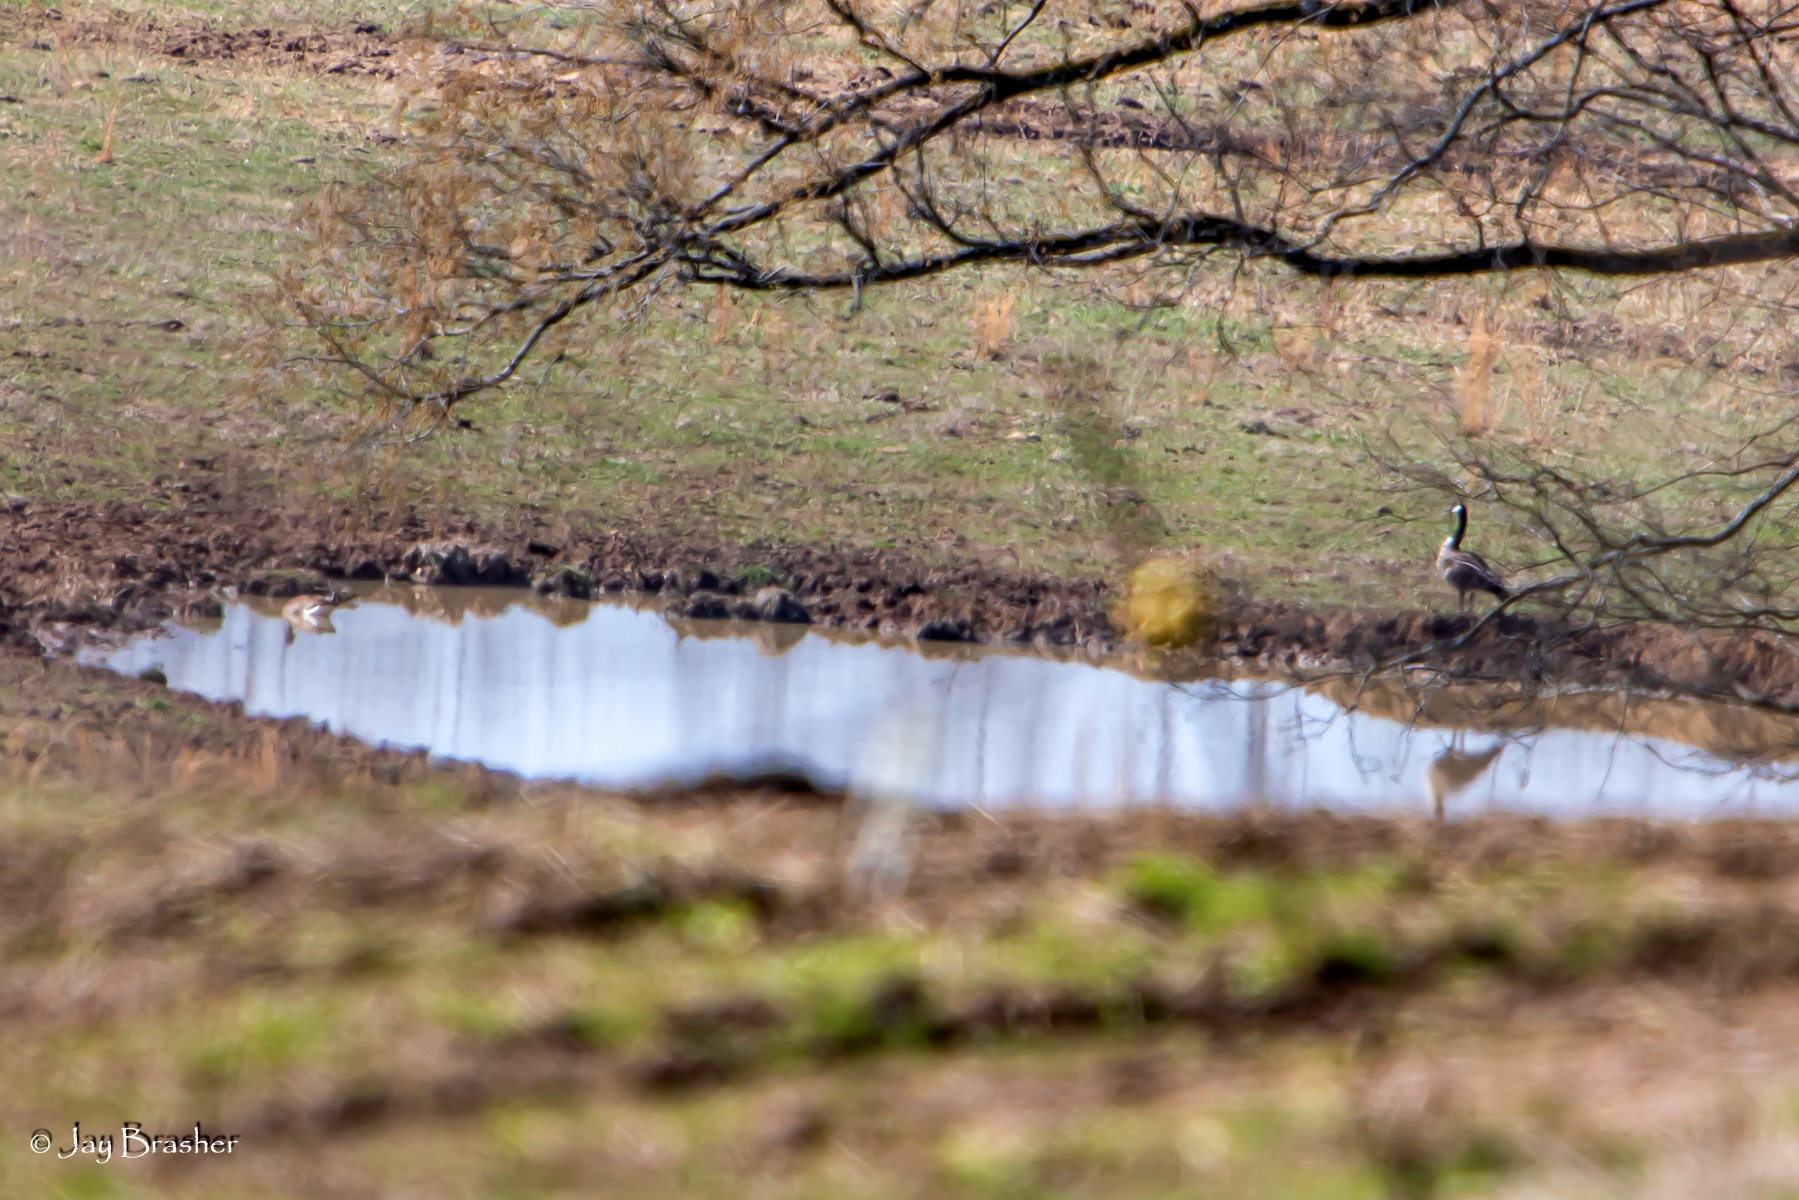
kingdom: Animalia
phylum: Chordata
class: Aves
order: Anseriformes
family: Anatidae
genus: Branta
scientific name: Branta canadensis
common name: Canada goose
